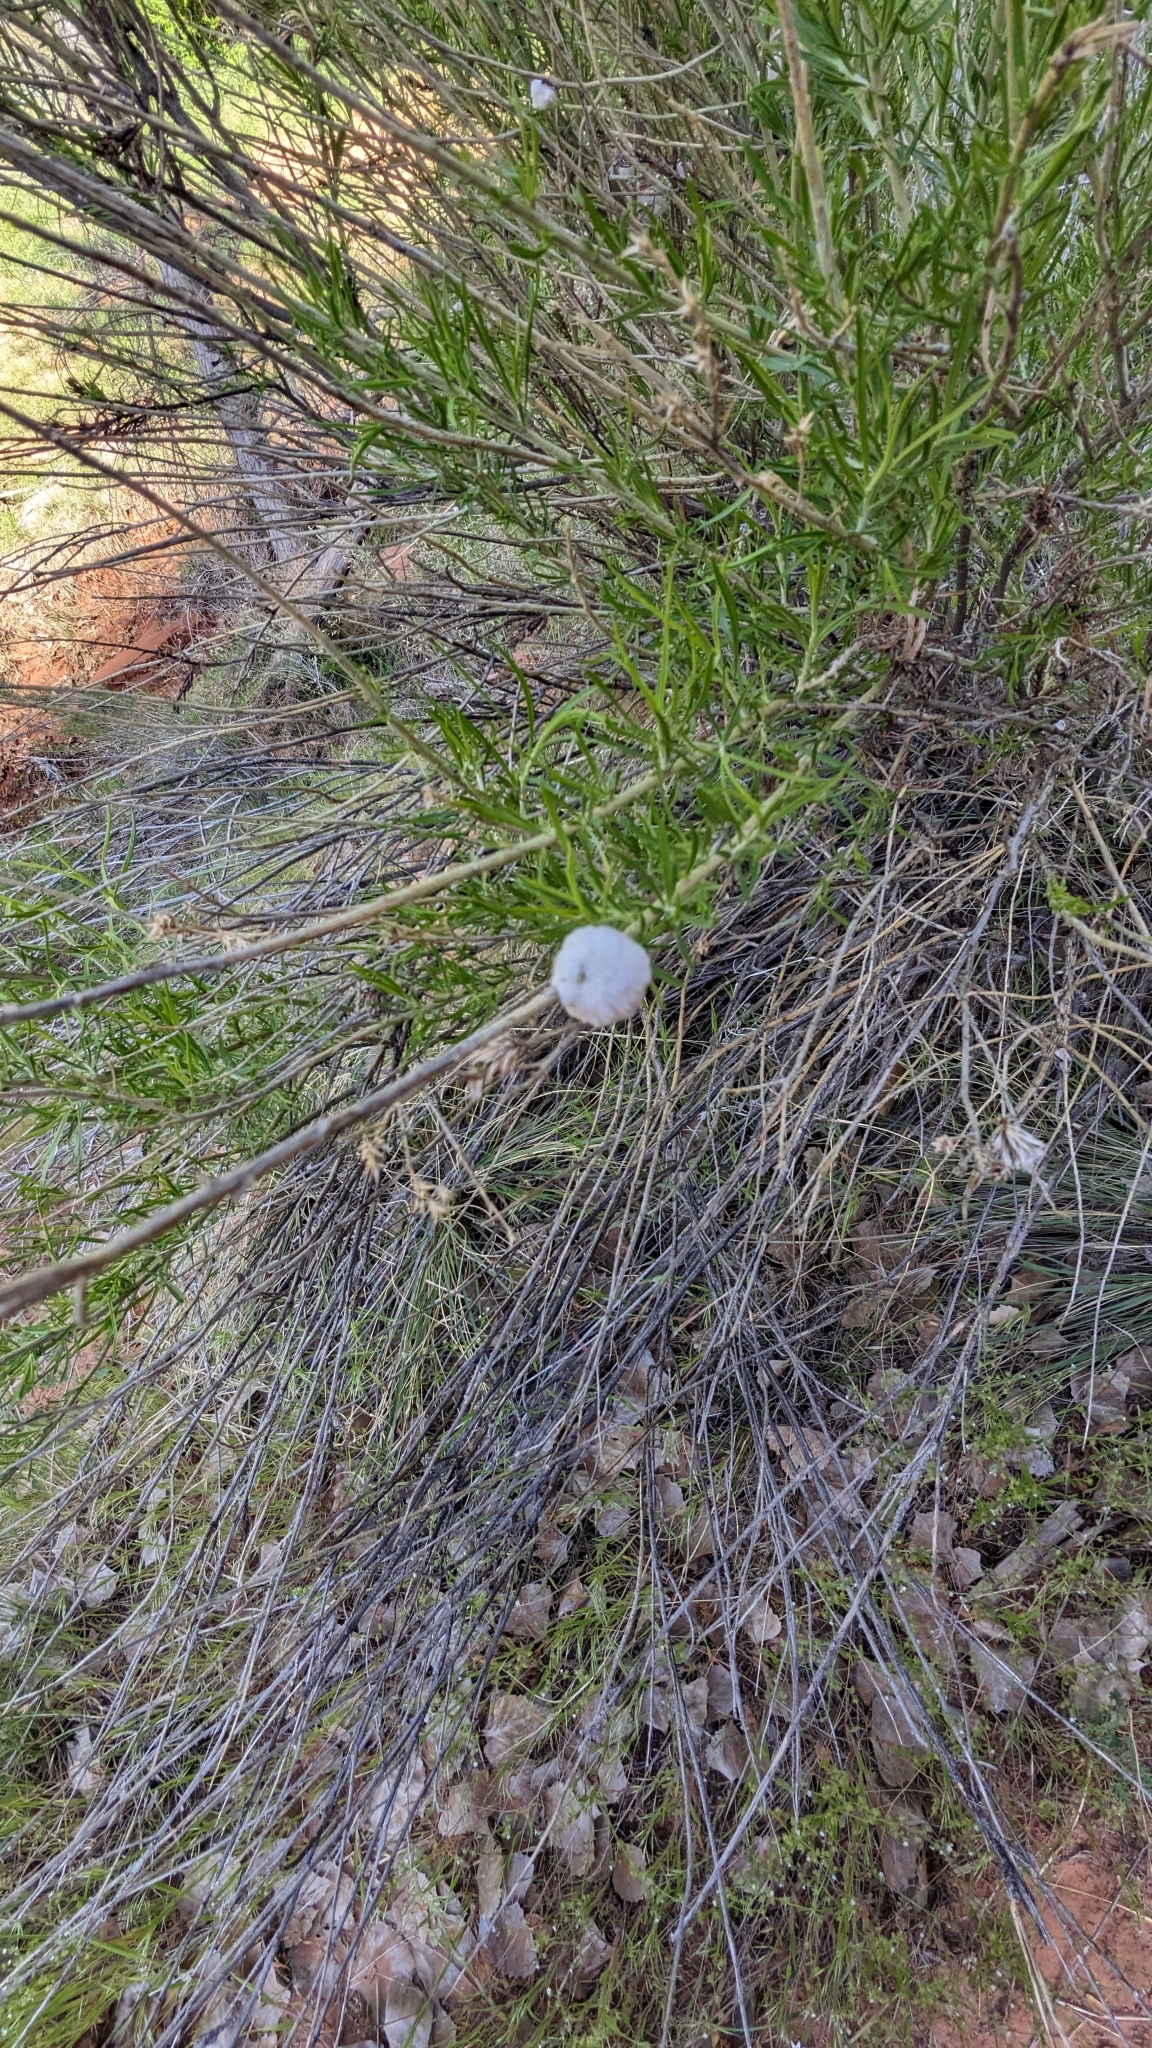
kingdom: Animalia
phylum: Arthropoda
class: Insecta
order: Diptera
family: Tephritidae
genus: Aciurina
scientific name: Aciurina bigeloviae
